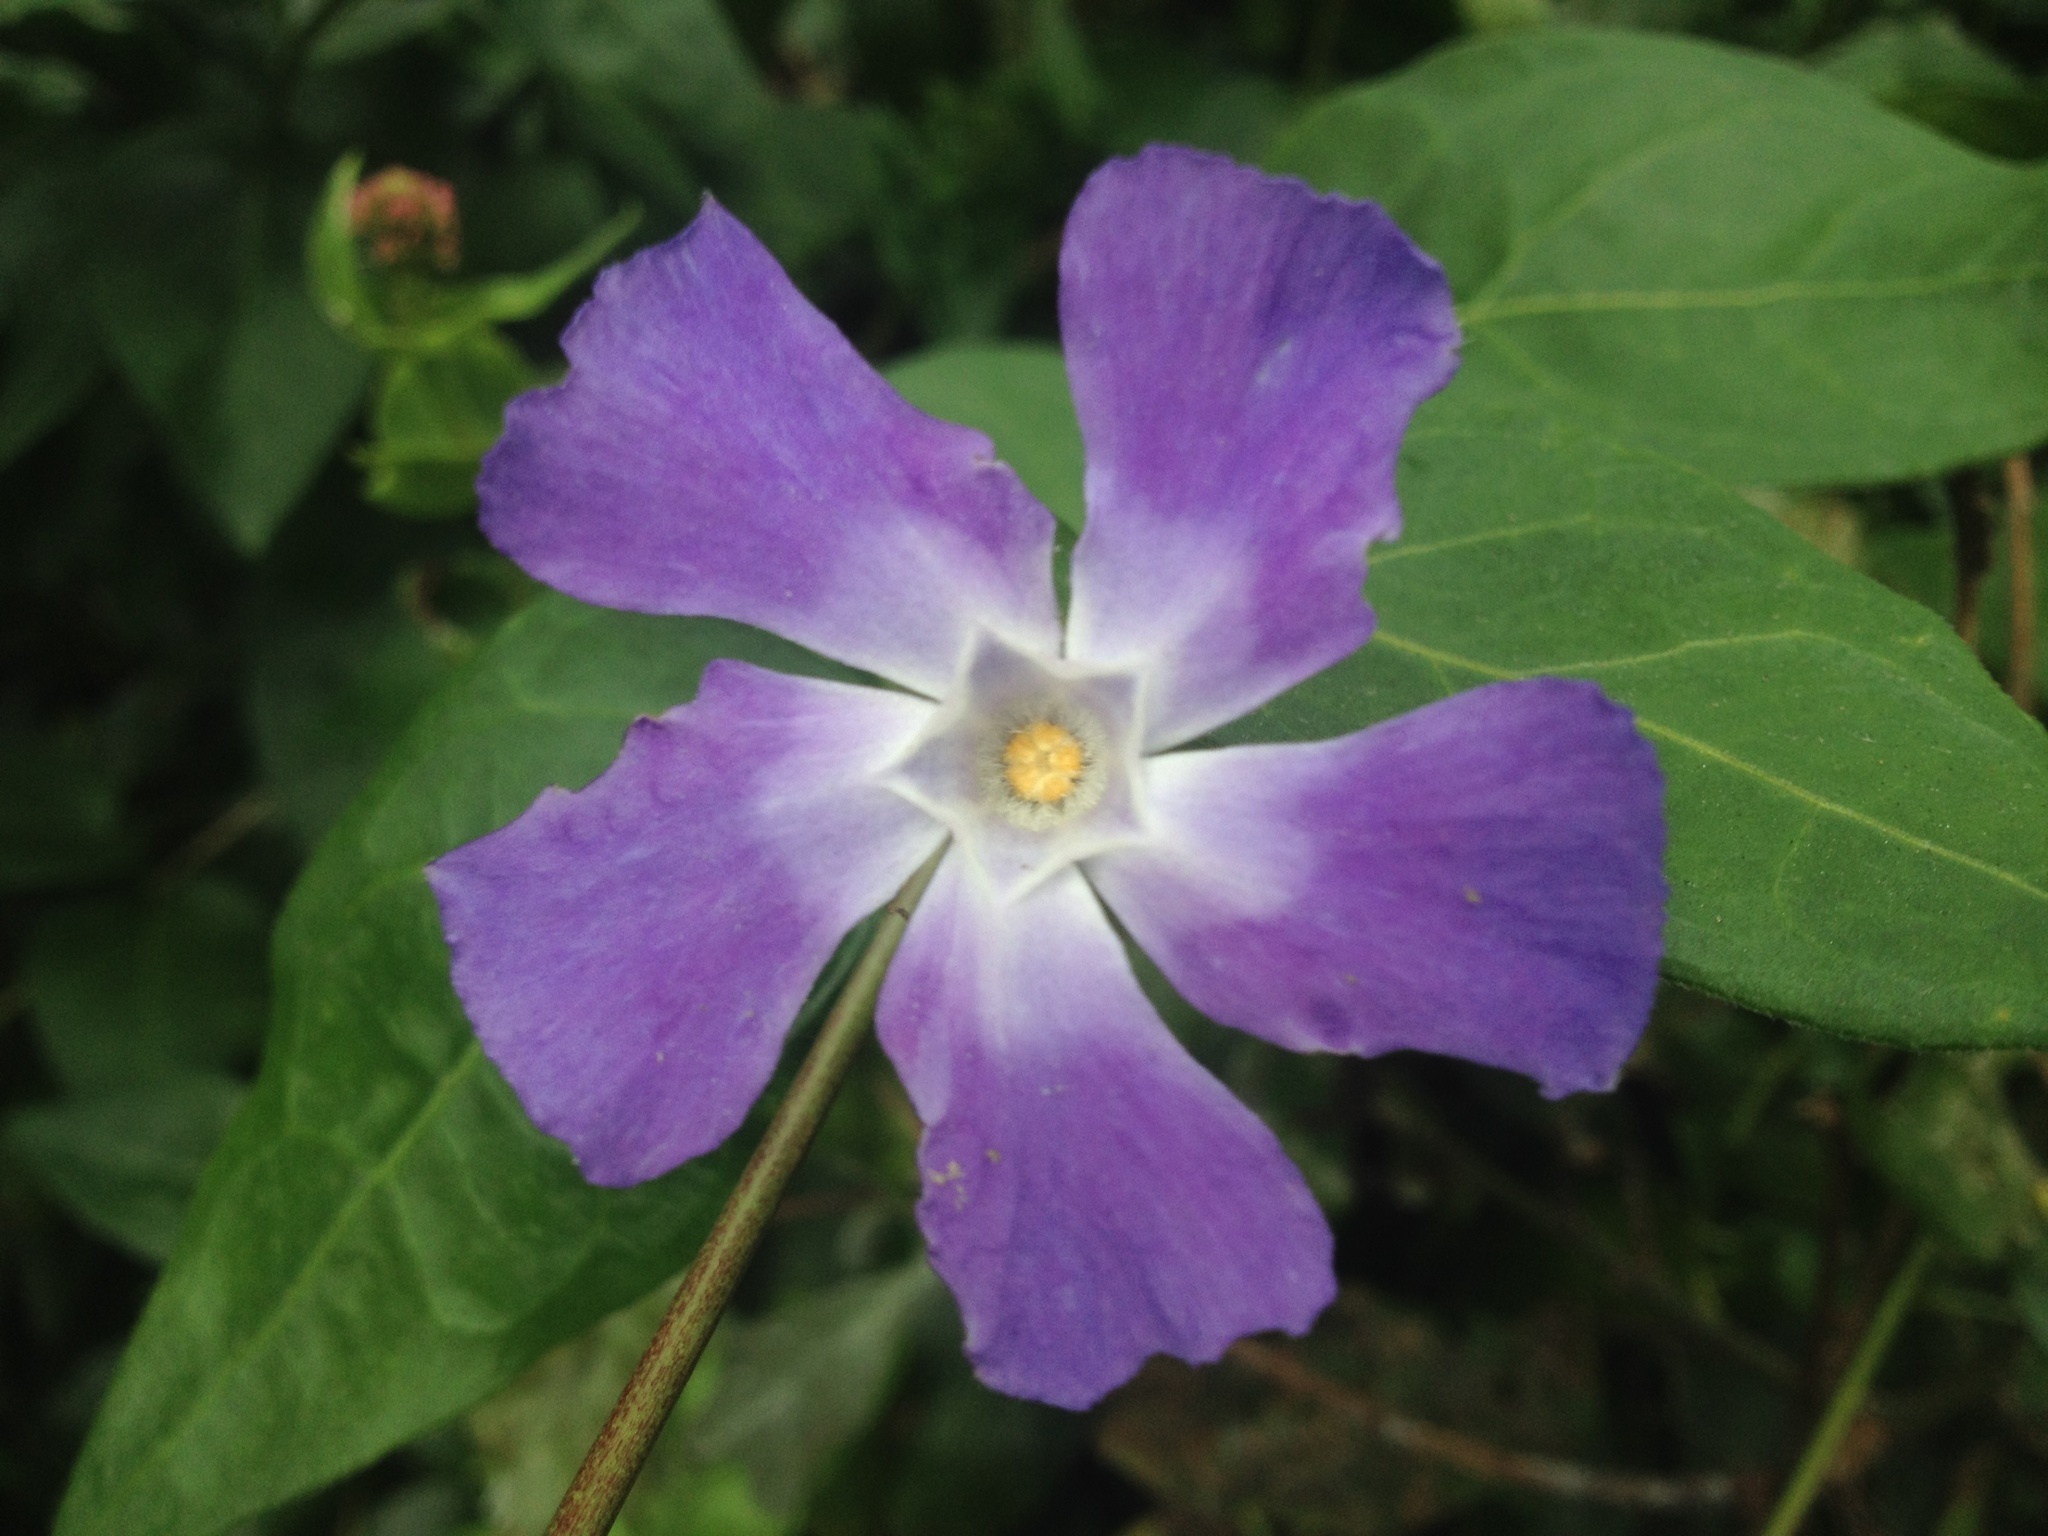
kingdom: Plantae
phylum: Tracheophyta
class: Magnoliopsida
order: Gentianales
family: Apocynaceae
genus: Vinca
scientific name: Vinca major
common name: Greater periwinkle
